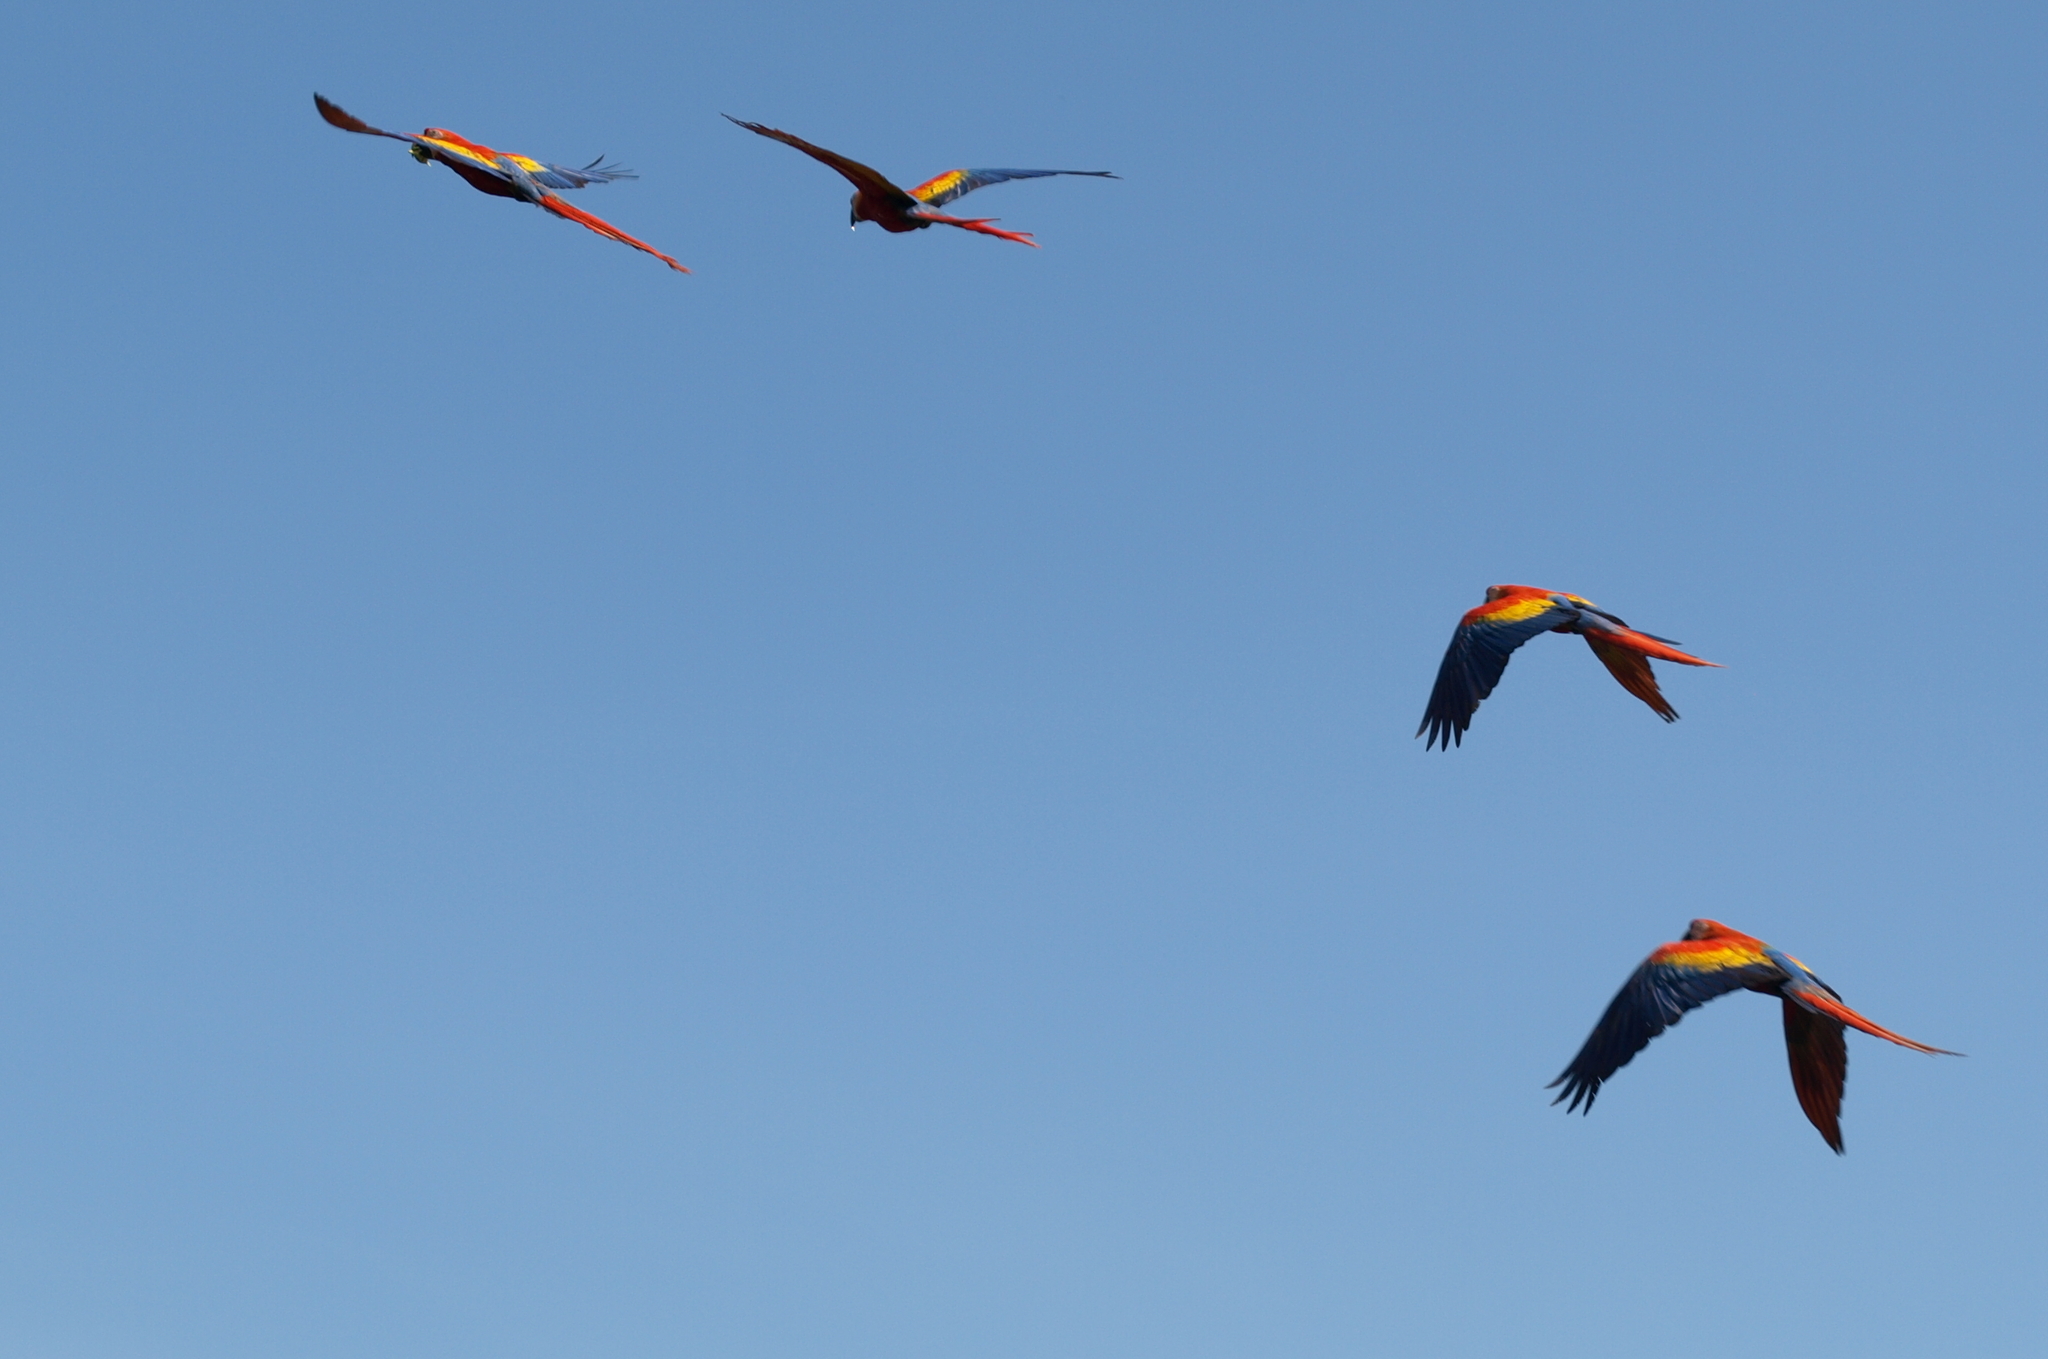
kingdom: Animalia
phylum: Chordata
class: Aves
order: Psittaciformes
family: Psittacidae
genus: Ara
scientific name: Ara macao
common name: Scarlet macaw
